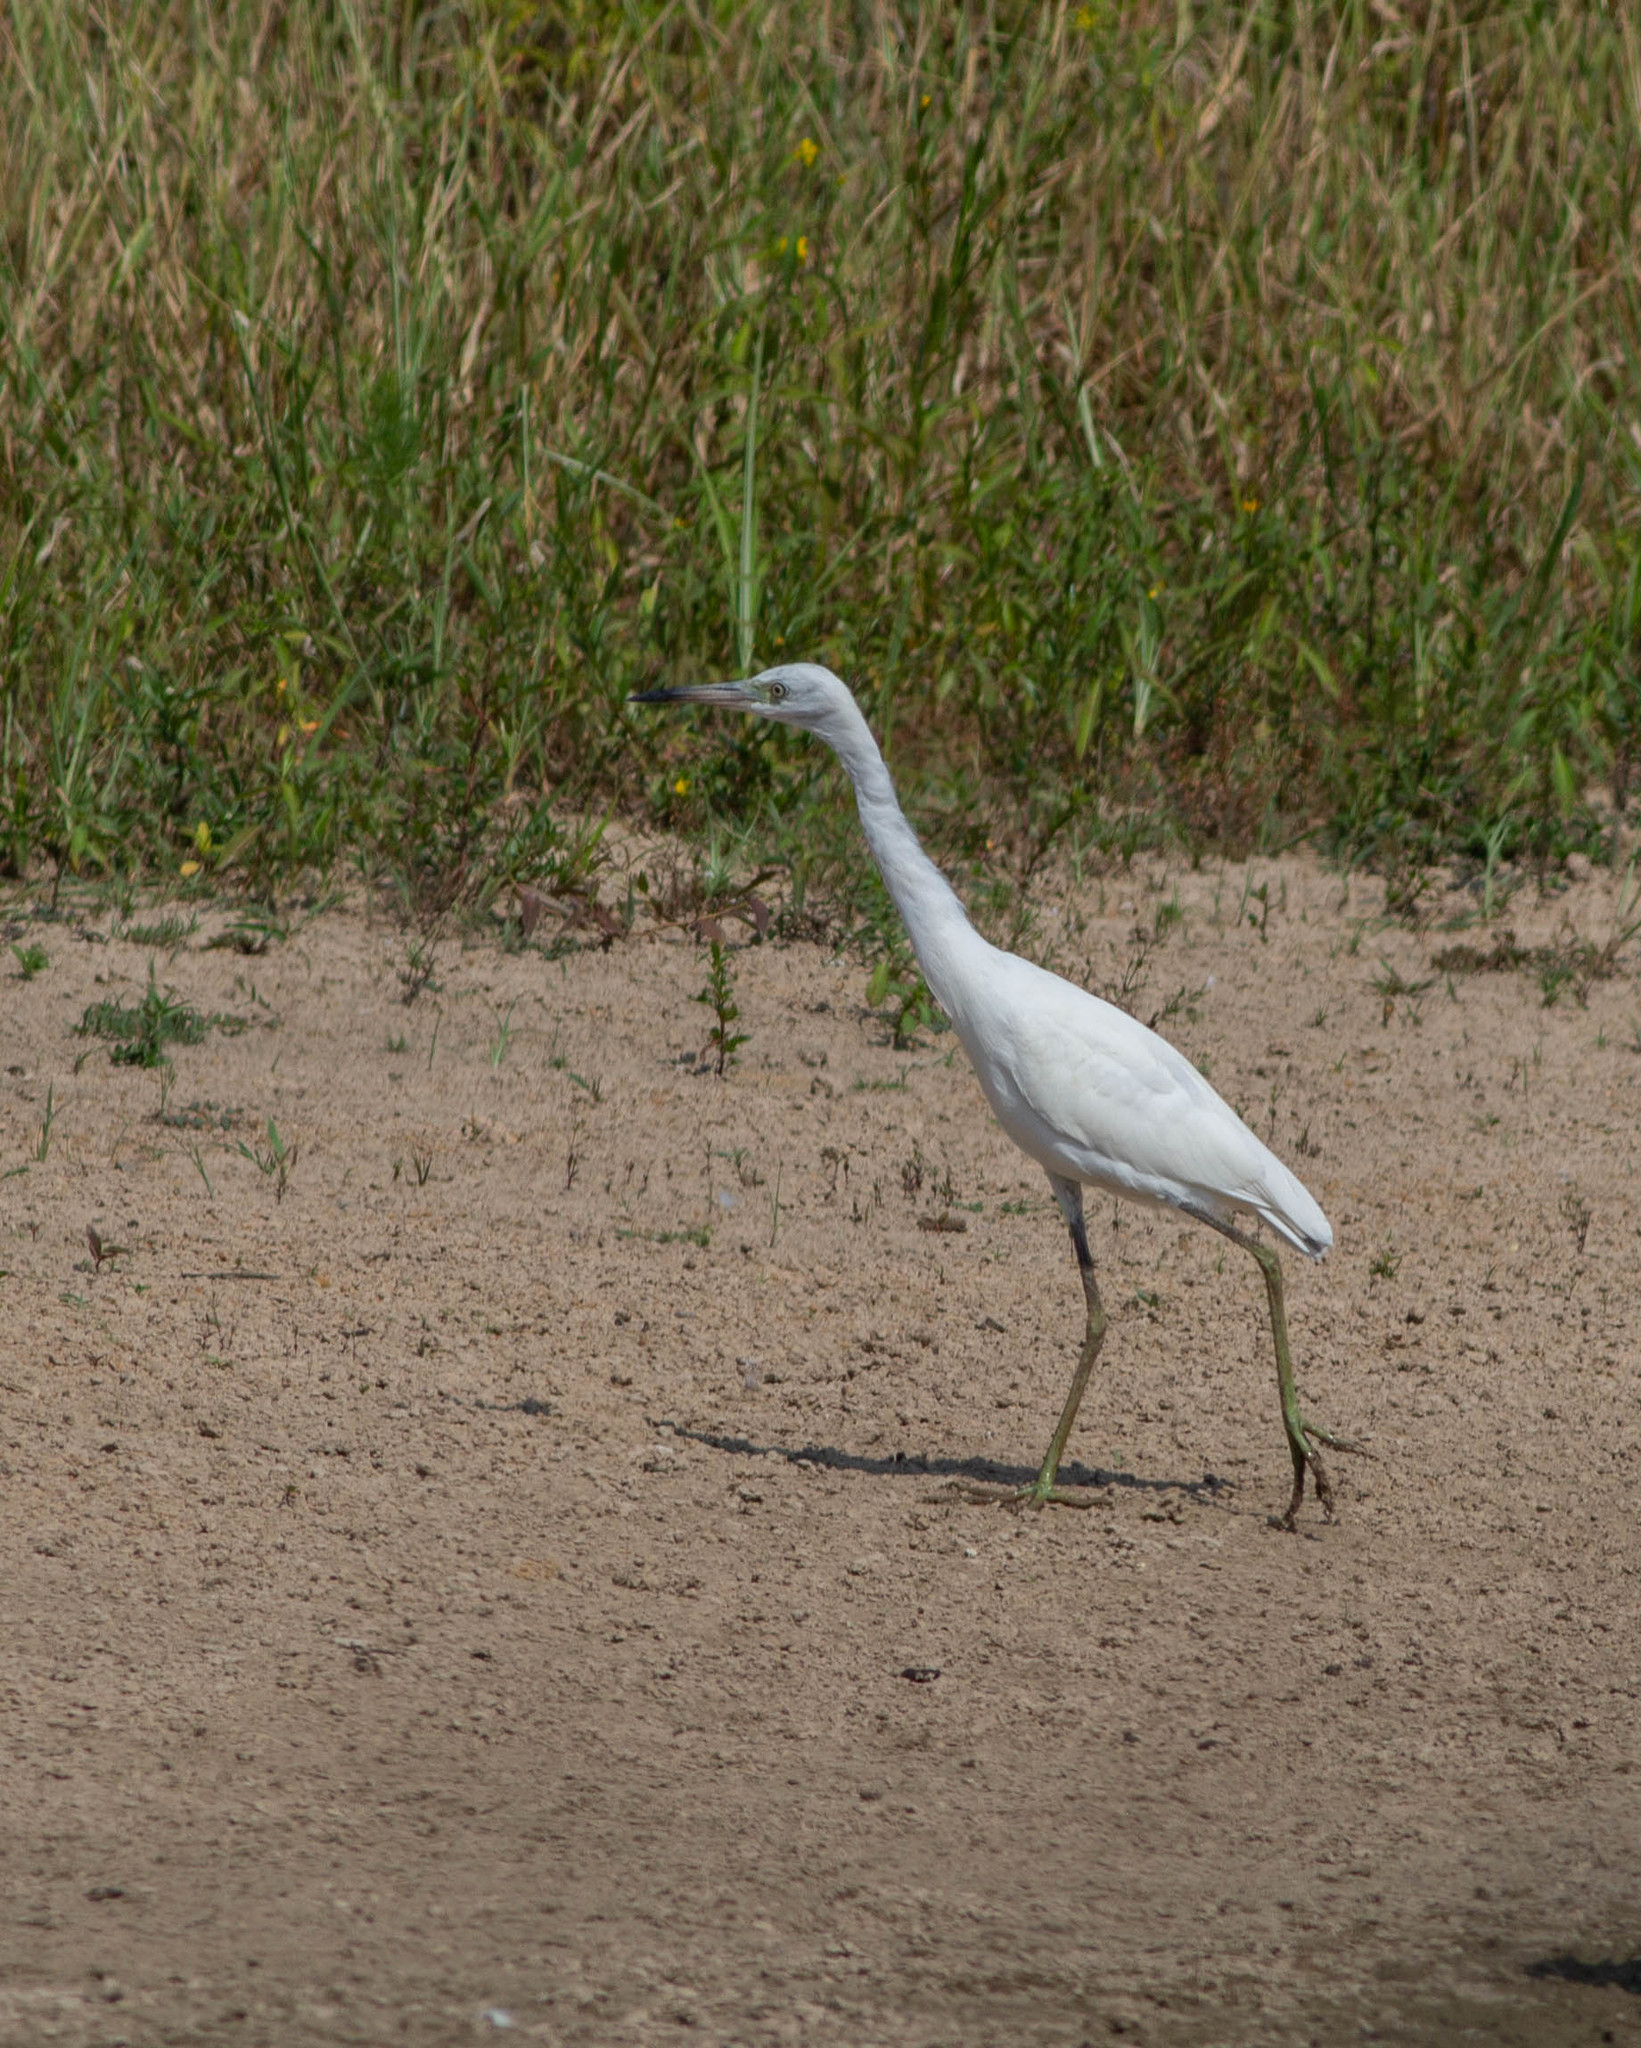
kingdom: Animalia
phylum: Chordata
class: Aves
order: Pelecaniformes
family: Ardeidae
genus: Egretta
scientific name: Egretta caerulea
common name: Little blue heron
